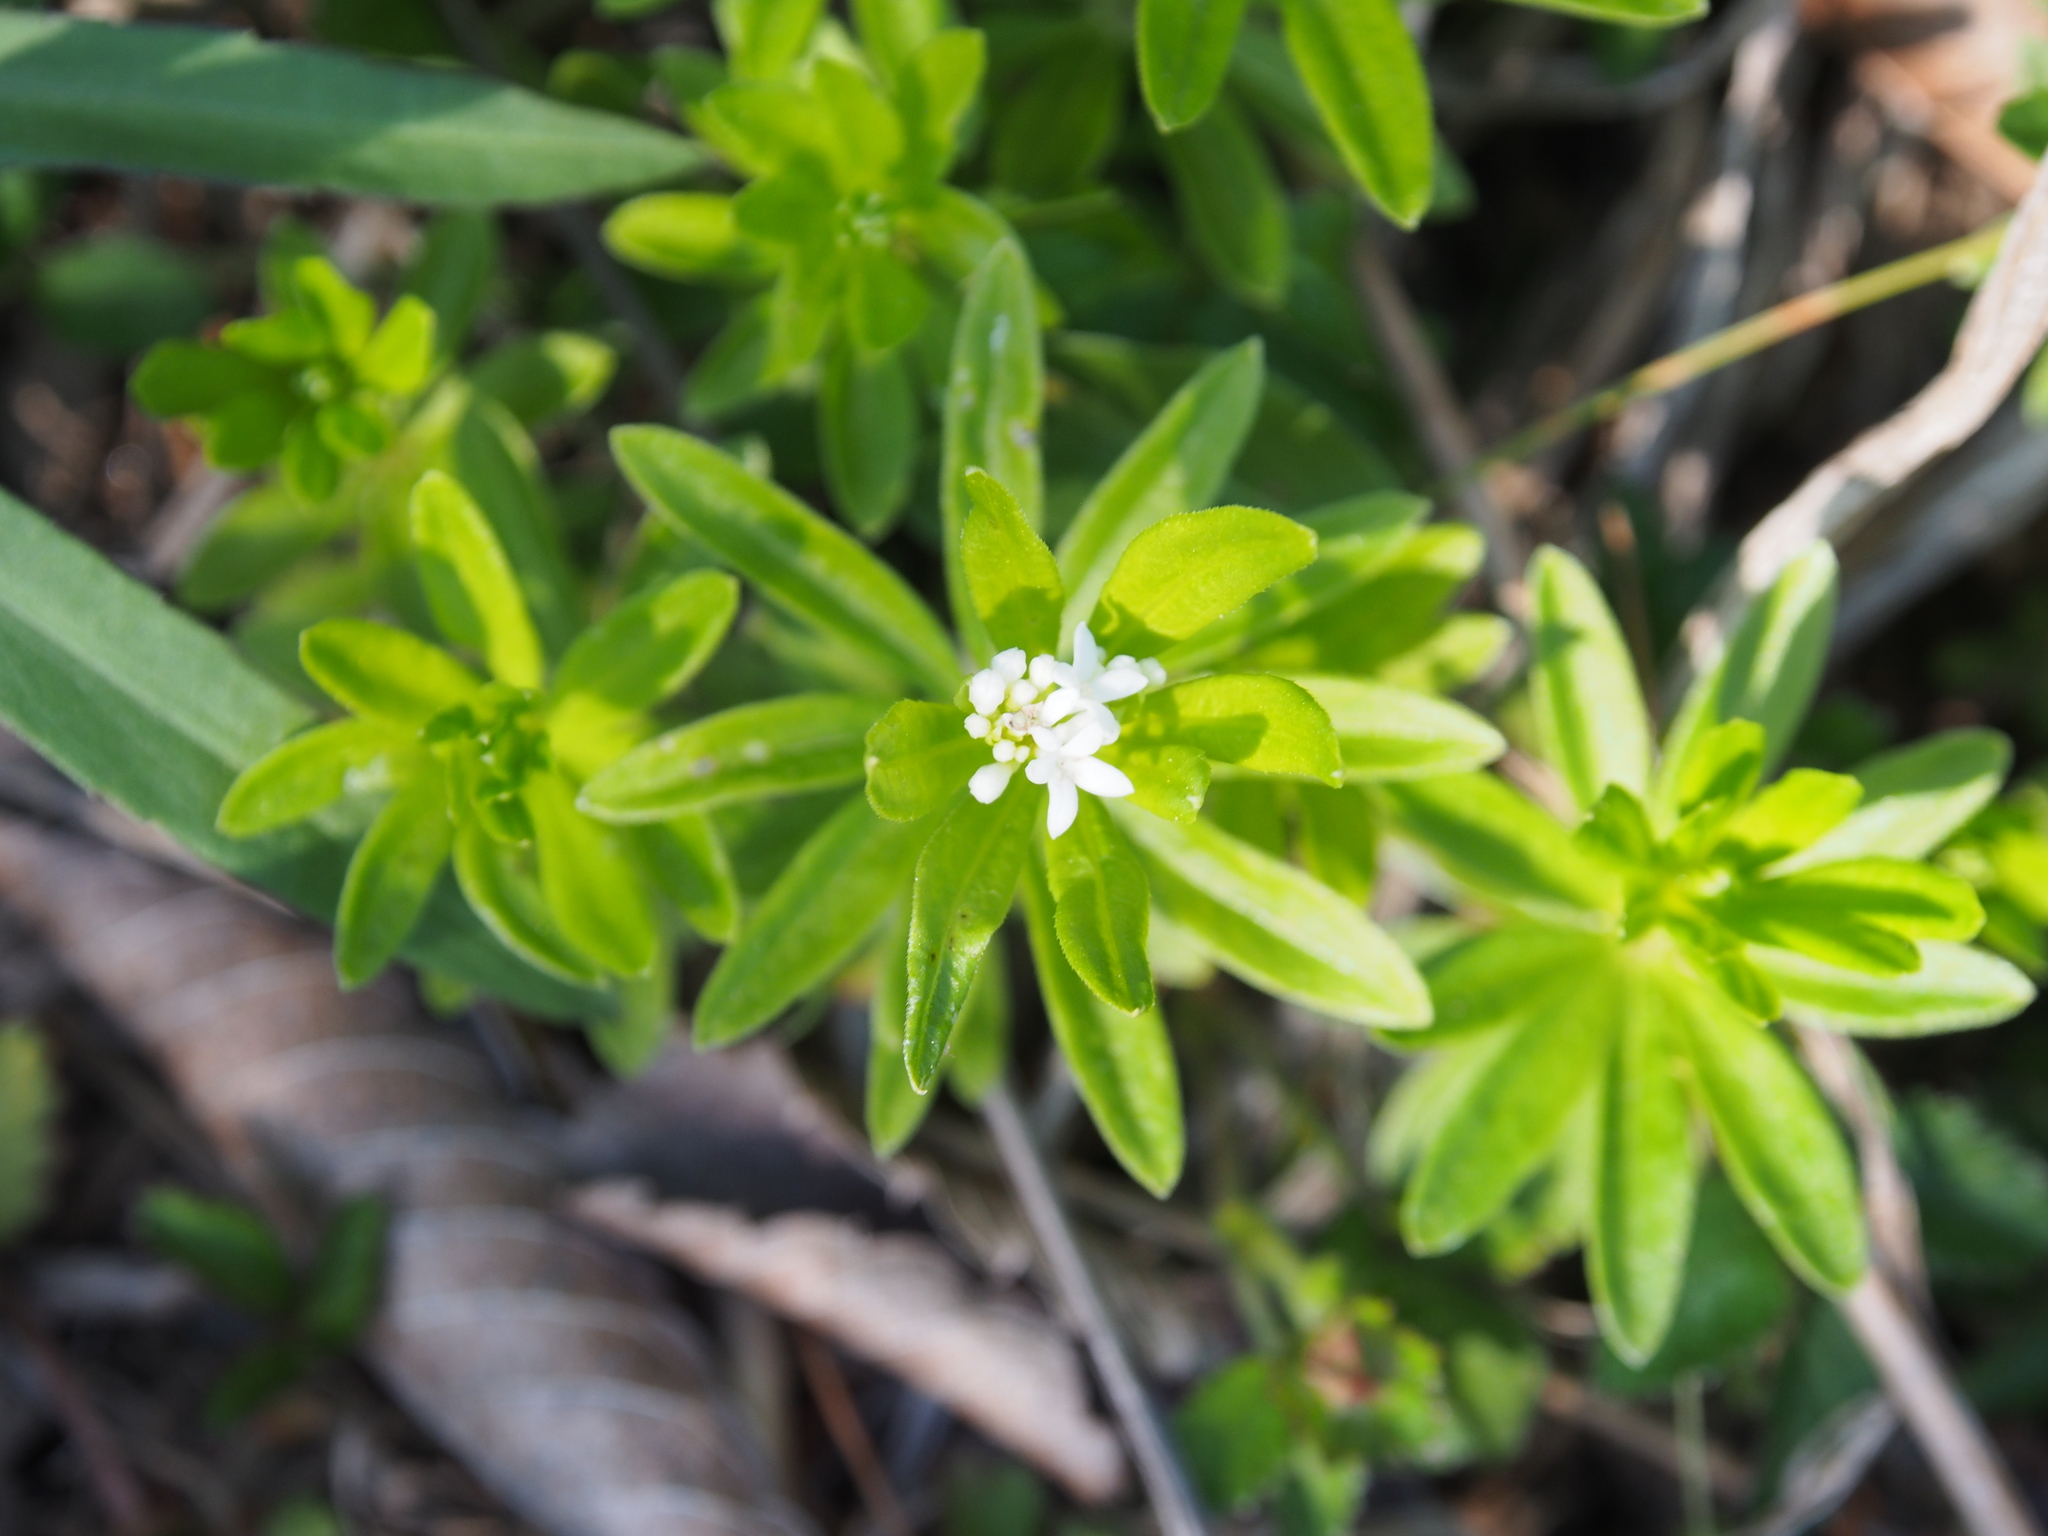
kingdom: Plantae
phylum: Tracheophyta
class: Magnoliopsida
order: Gentianales
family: Rubiaceae
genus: Galium
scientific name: Galium odoratum
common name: Sweet woodruff
